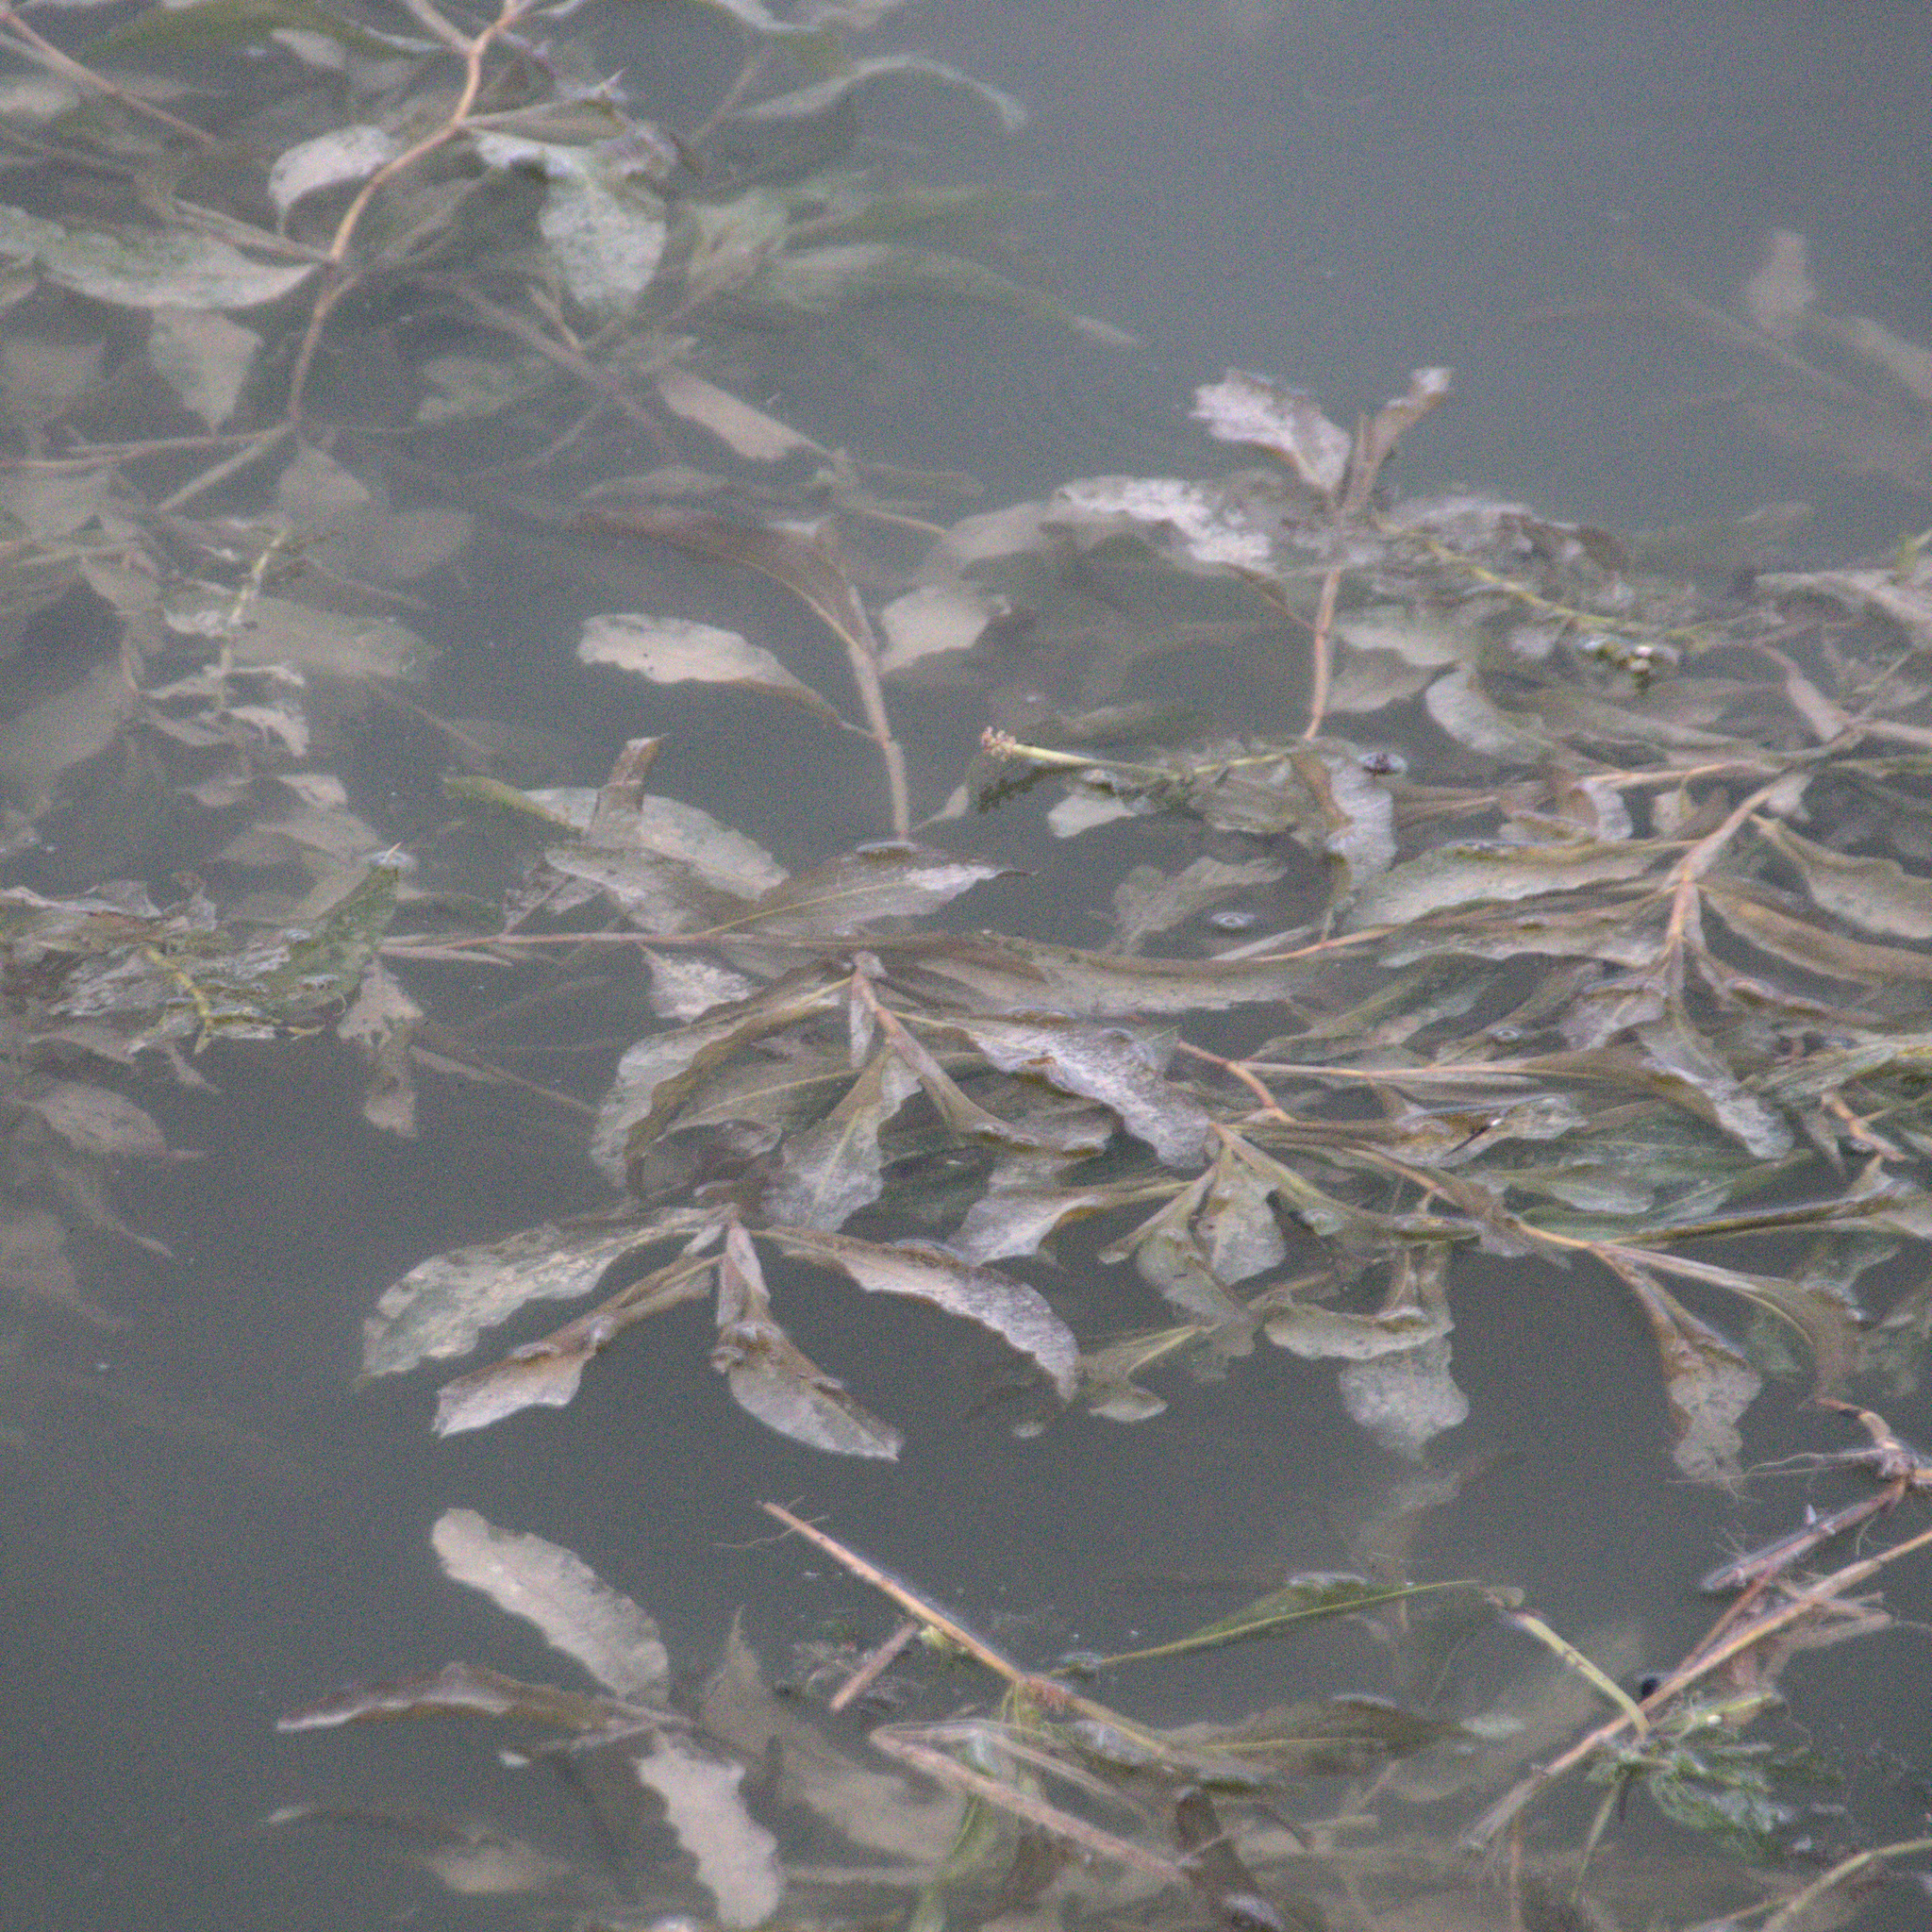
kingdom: Plantae
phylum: Tracheophyta
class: Liliopsida
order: Alismatales
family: Potamogetonaceae
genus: Potamogeton
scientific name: Potamogeton lucens
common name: Shining pondweed
